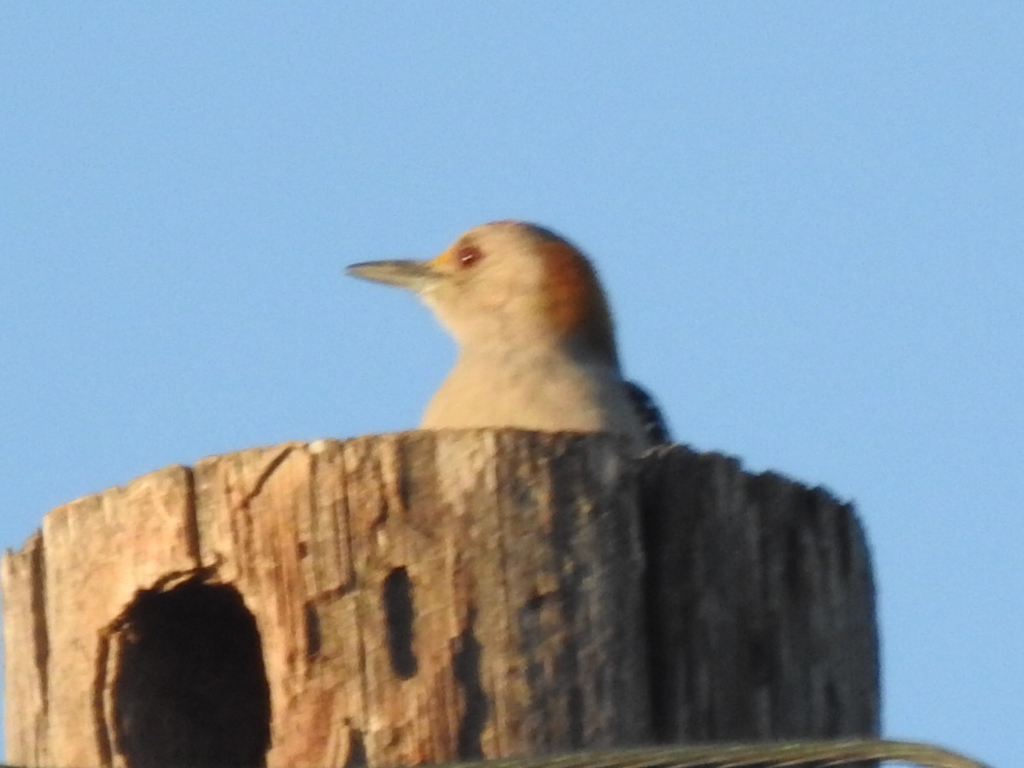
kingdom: Animalia
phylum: Chordata
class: Aves
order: Piciformes
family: Picidae
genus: Melanerpes
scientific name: Melanerpes aurifrons
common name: Golden-fronted woodpecker
